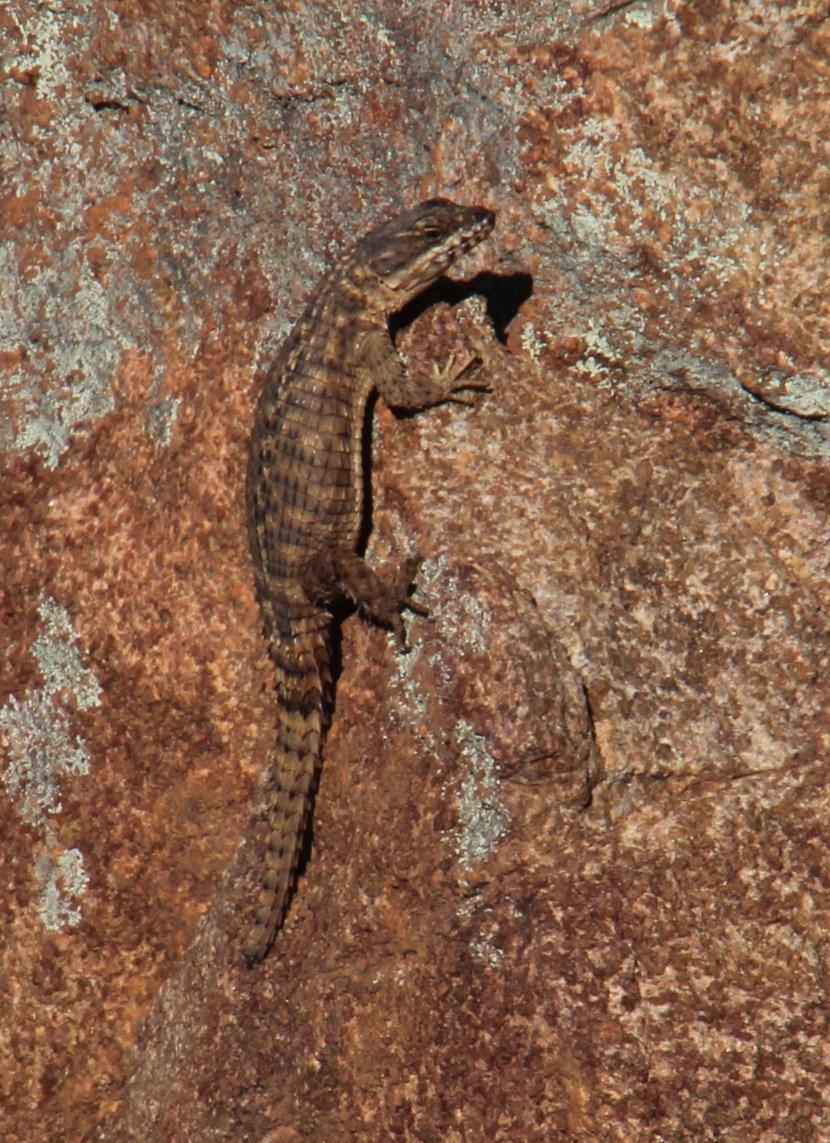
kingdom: Animalia
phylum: Chordata
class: Squamata
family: Cordylidae
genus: Cordylus
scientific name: Cordylus cordylus
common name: Cape girdled lizard
